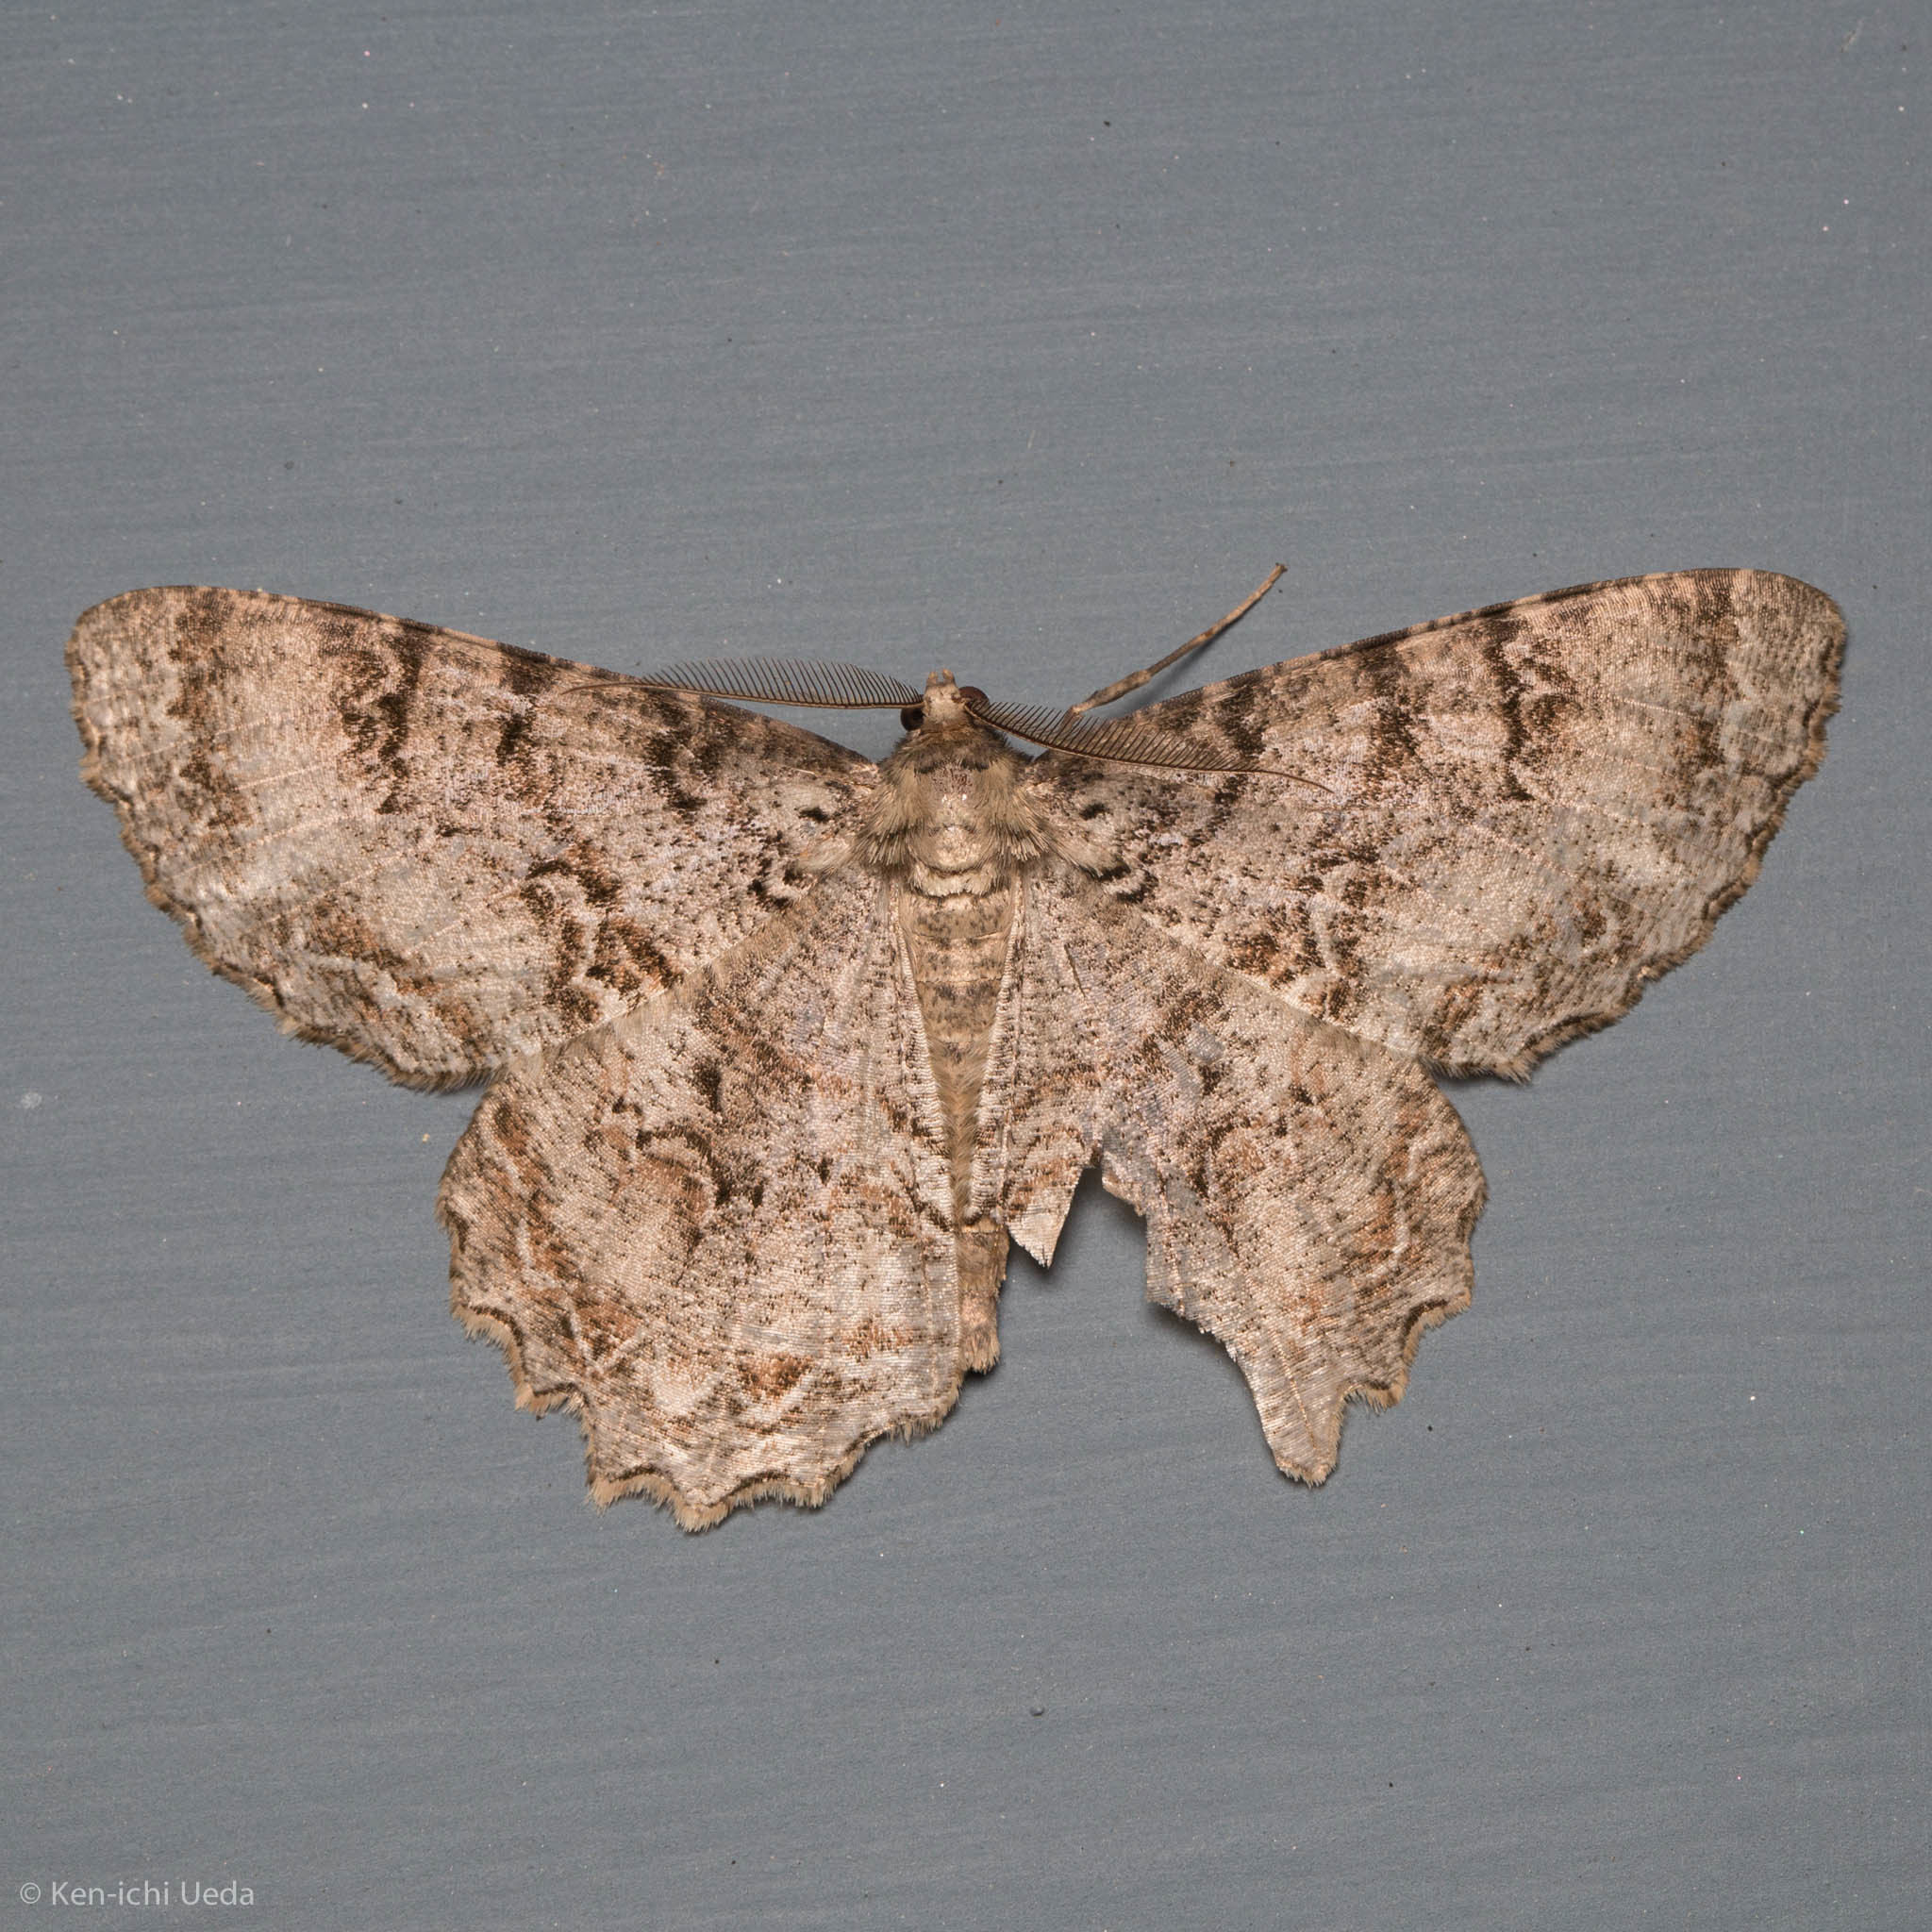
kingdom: Animalia
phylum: Arthropoda
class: Insecta
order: Lepidoptera
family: Geometridae
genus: Epimecis
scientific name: Epimecis hortaria
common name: Tulip-tree beauty
